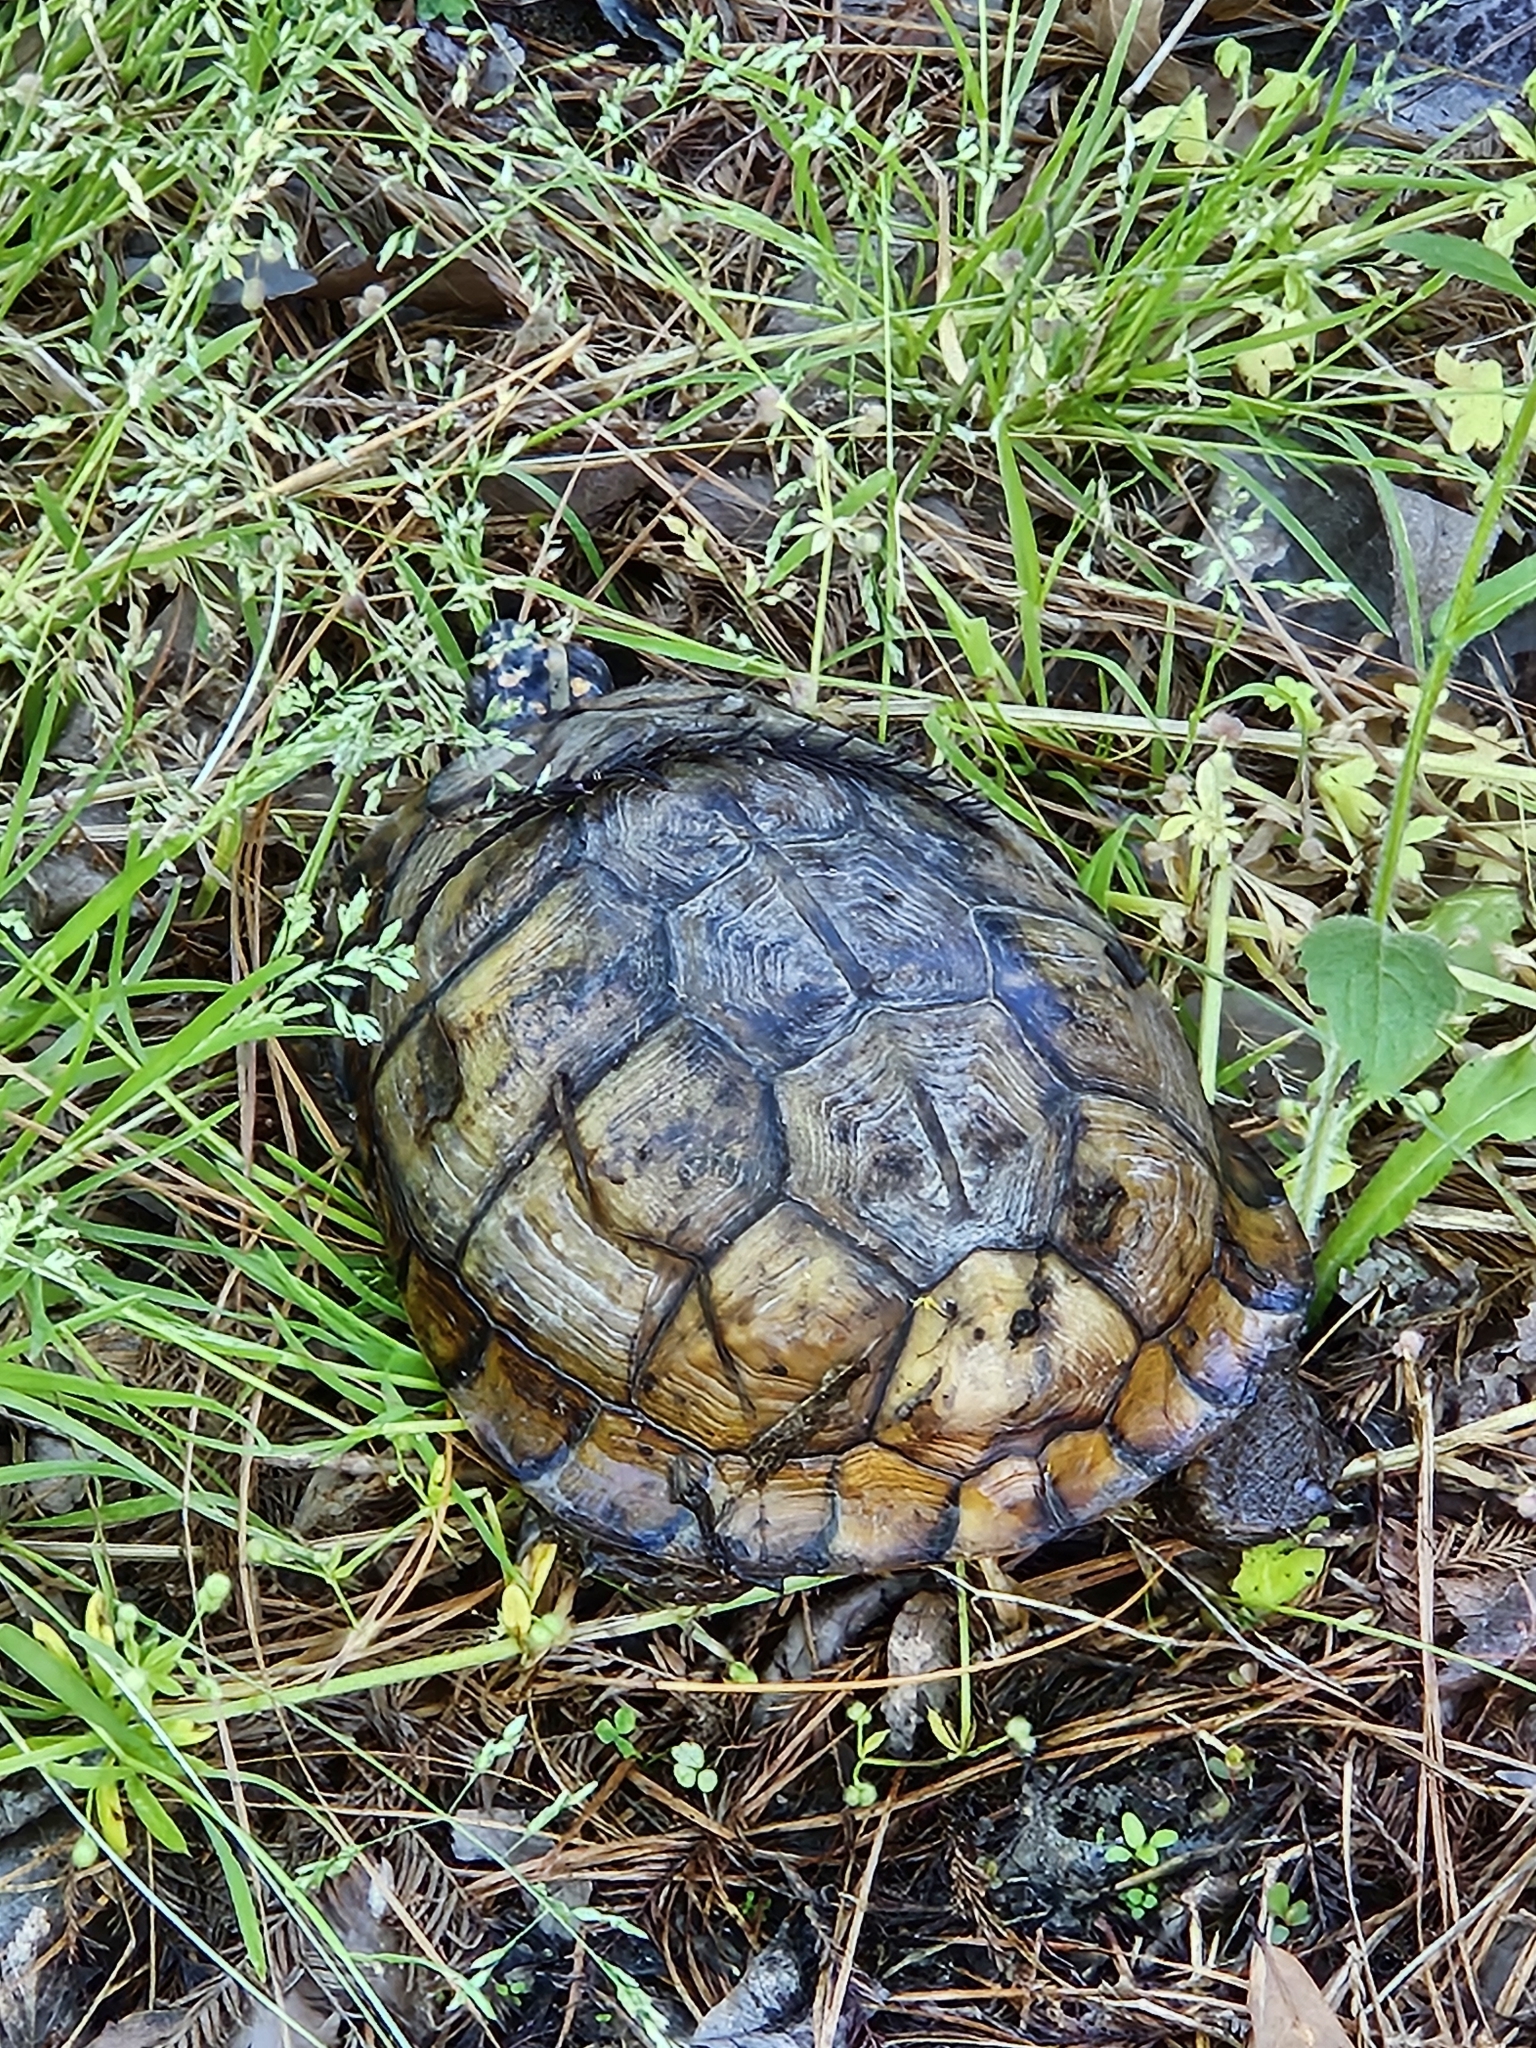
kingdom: Animalia
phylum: Chordata
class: Testudines
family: Emydidae
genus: Terrapene
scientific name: Terrapene carolina
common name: Common box turtle
